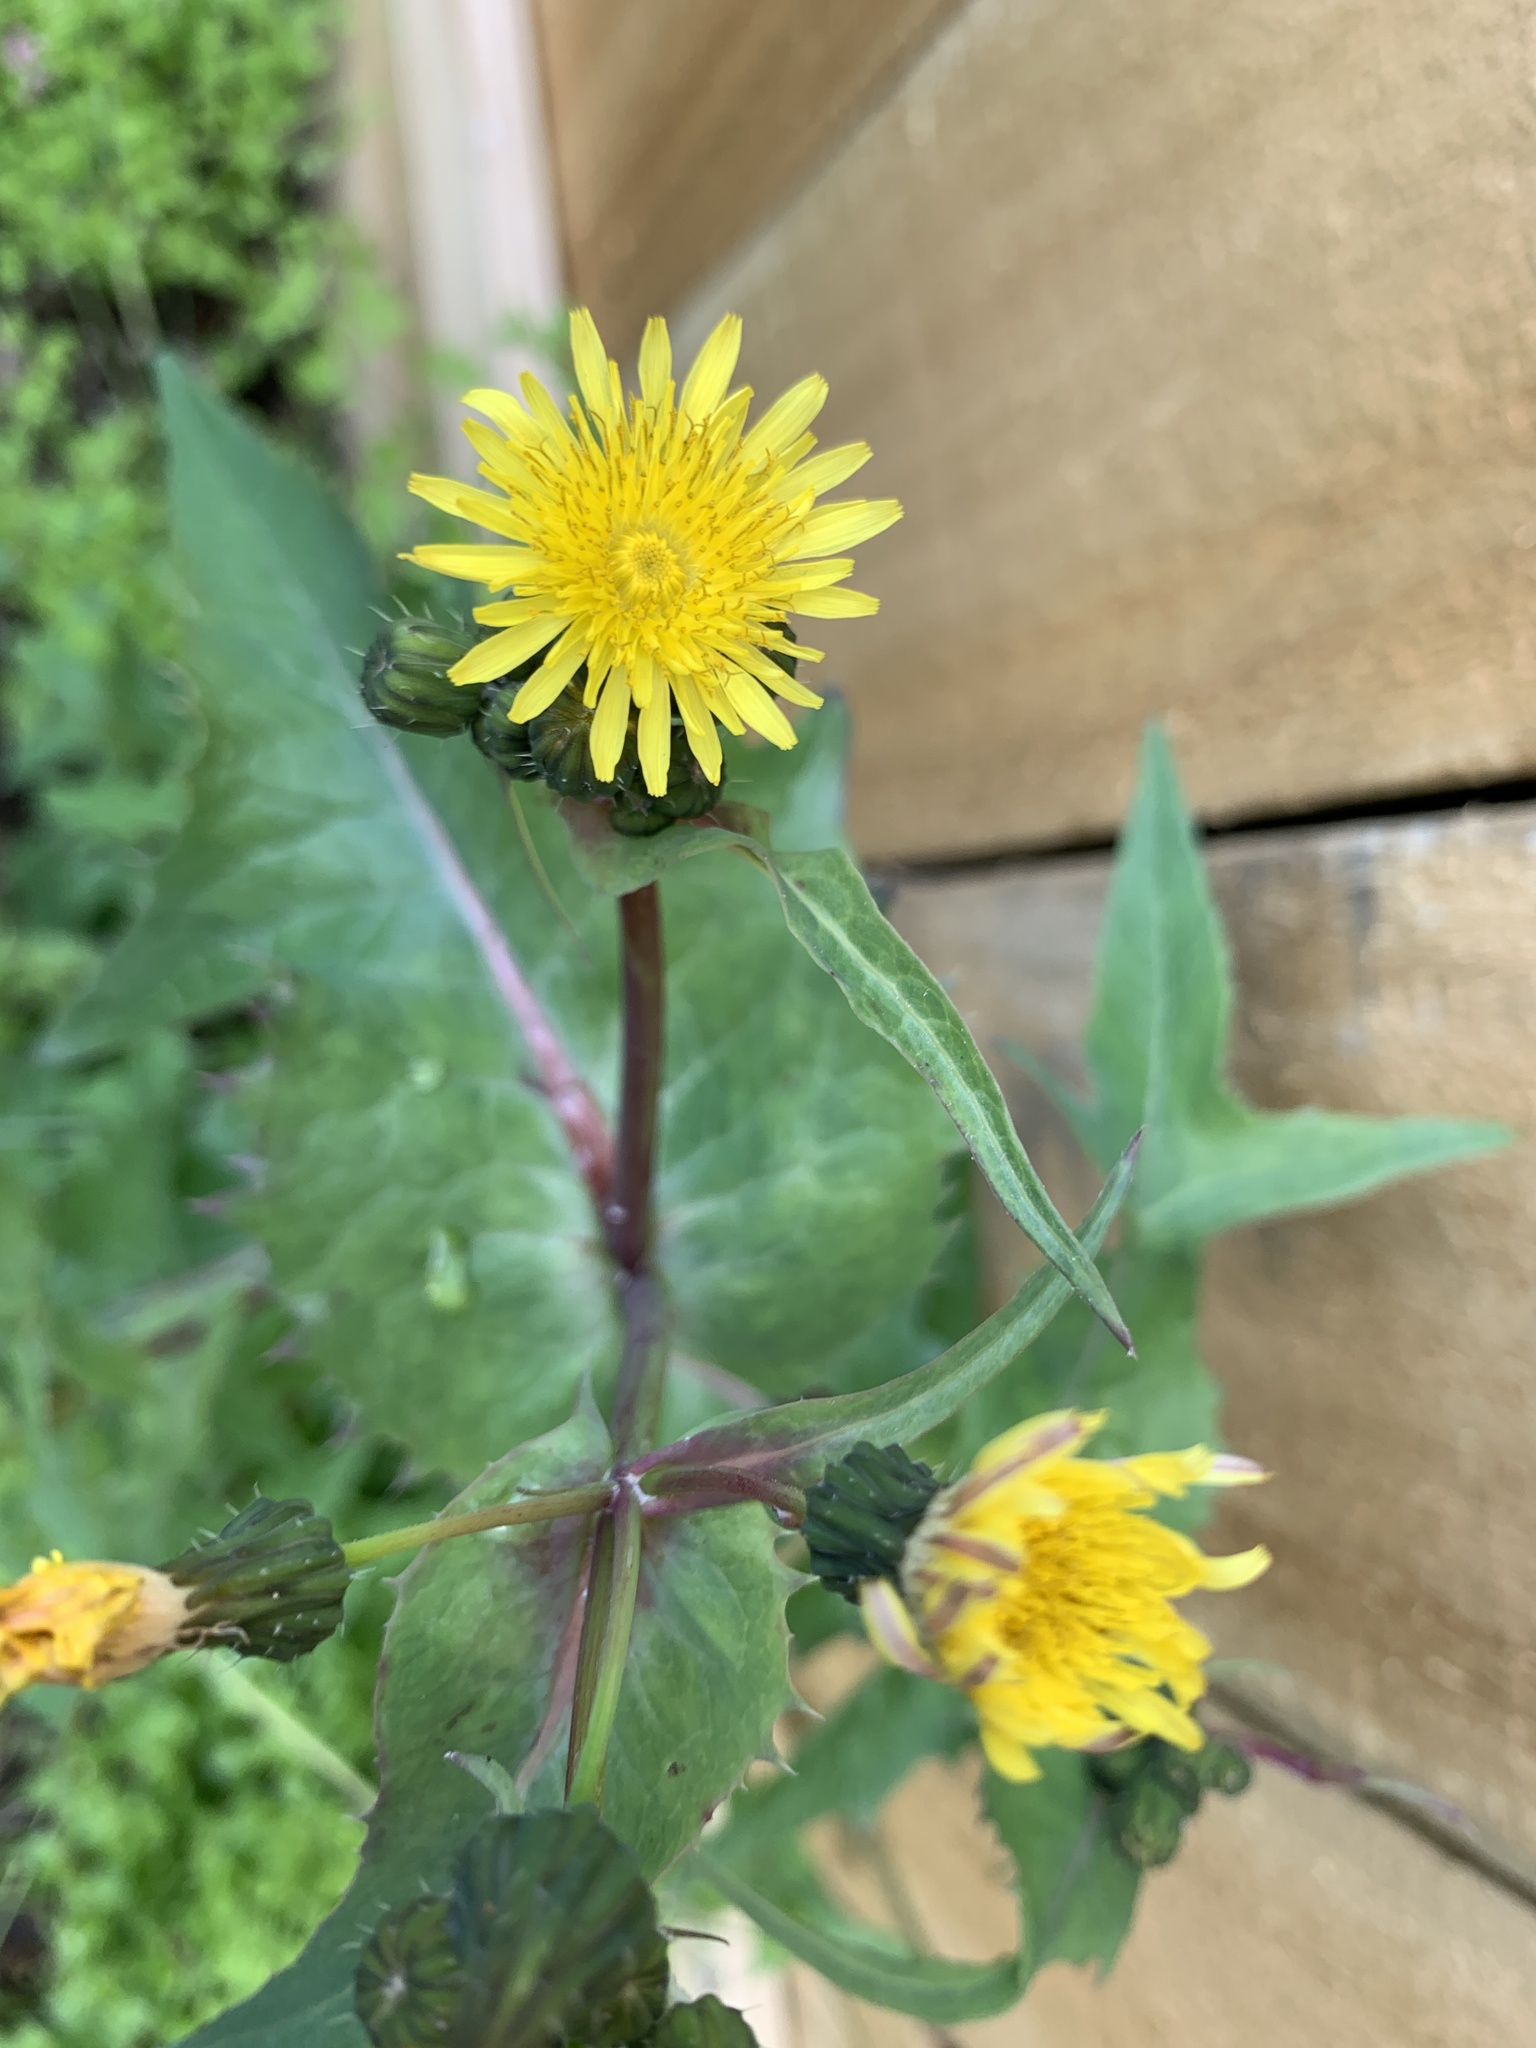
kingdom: Plantae
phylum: Tracheophyta
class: Magnoliopsida
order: Asterales
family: Asteraceae
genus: Sonchus
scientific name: Sonchus oleraceus
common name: Common sowthistle
